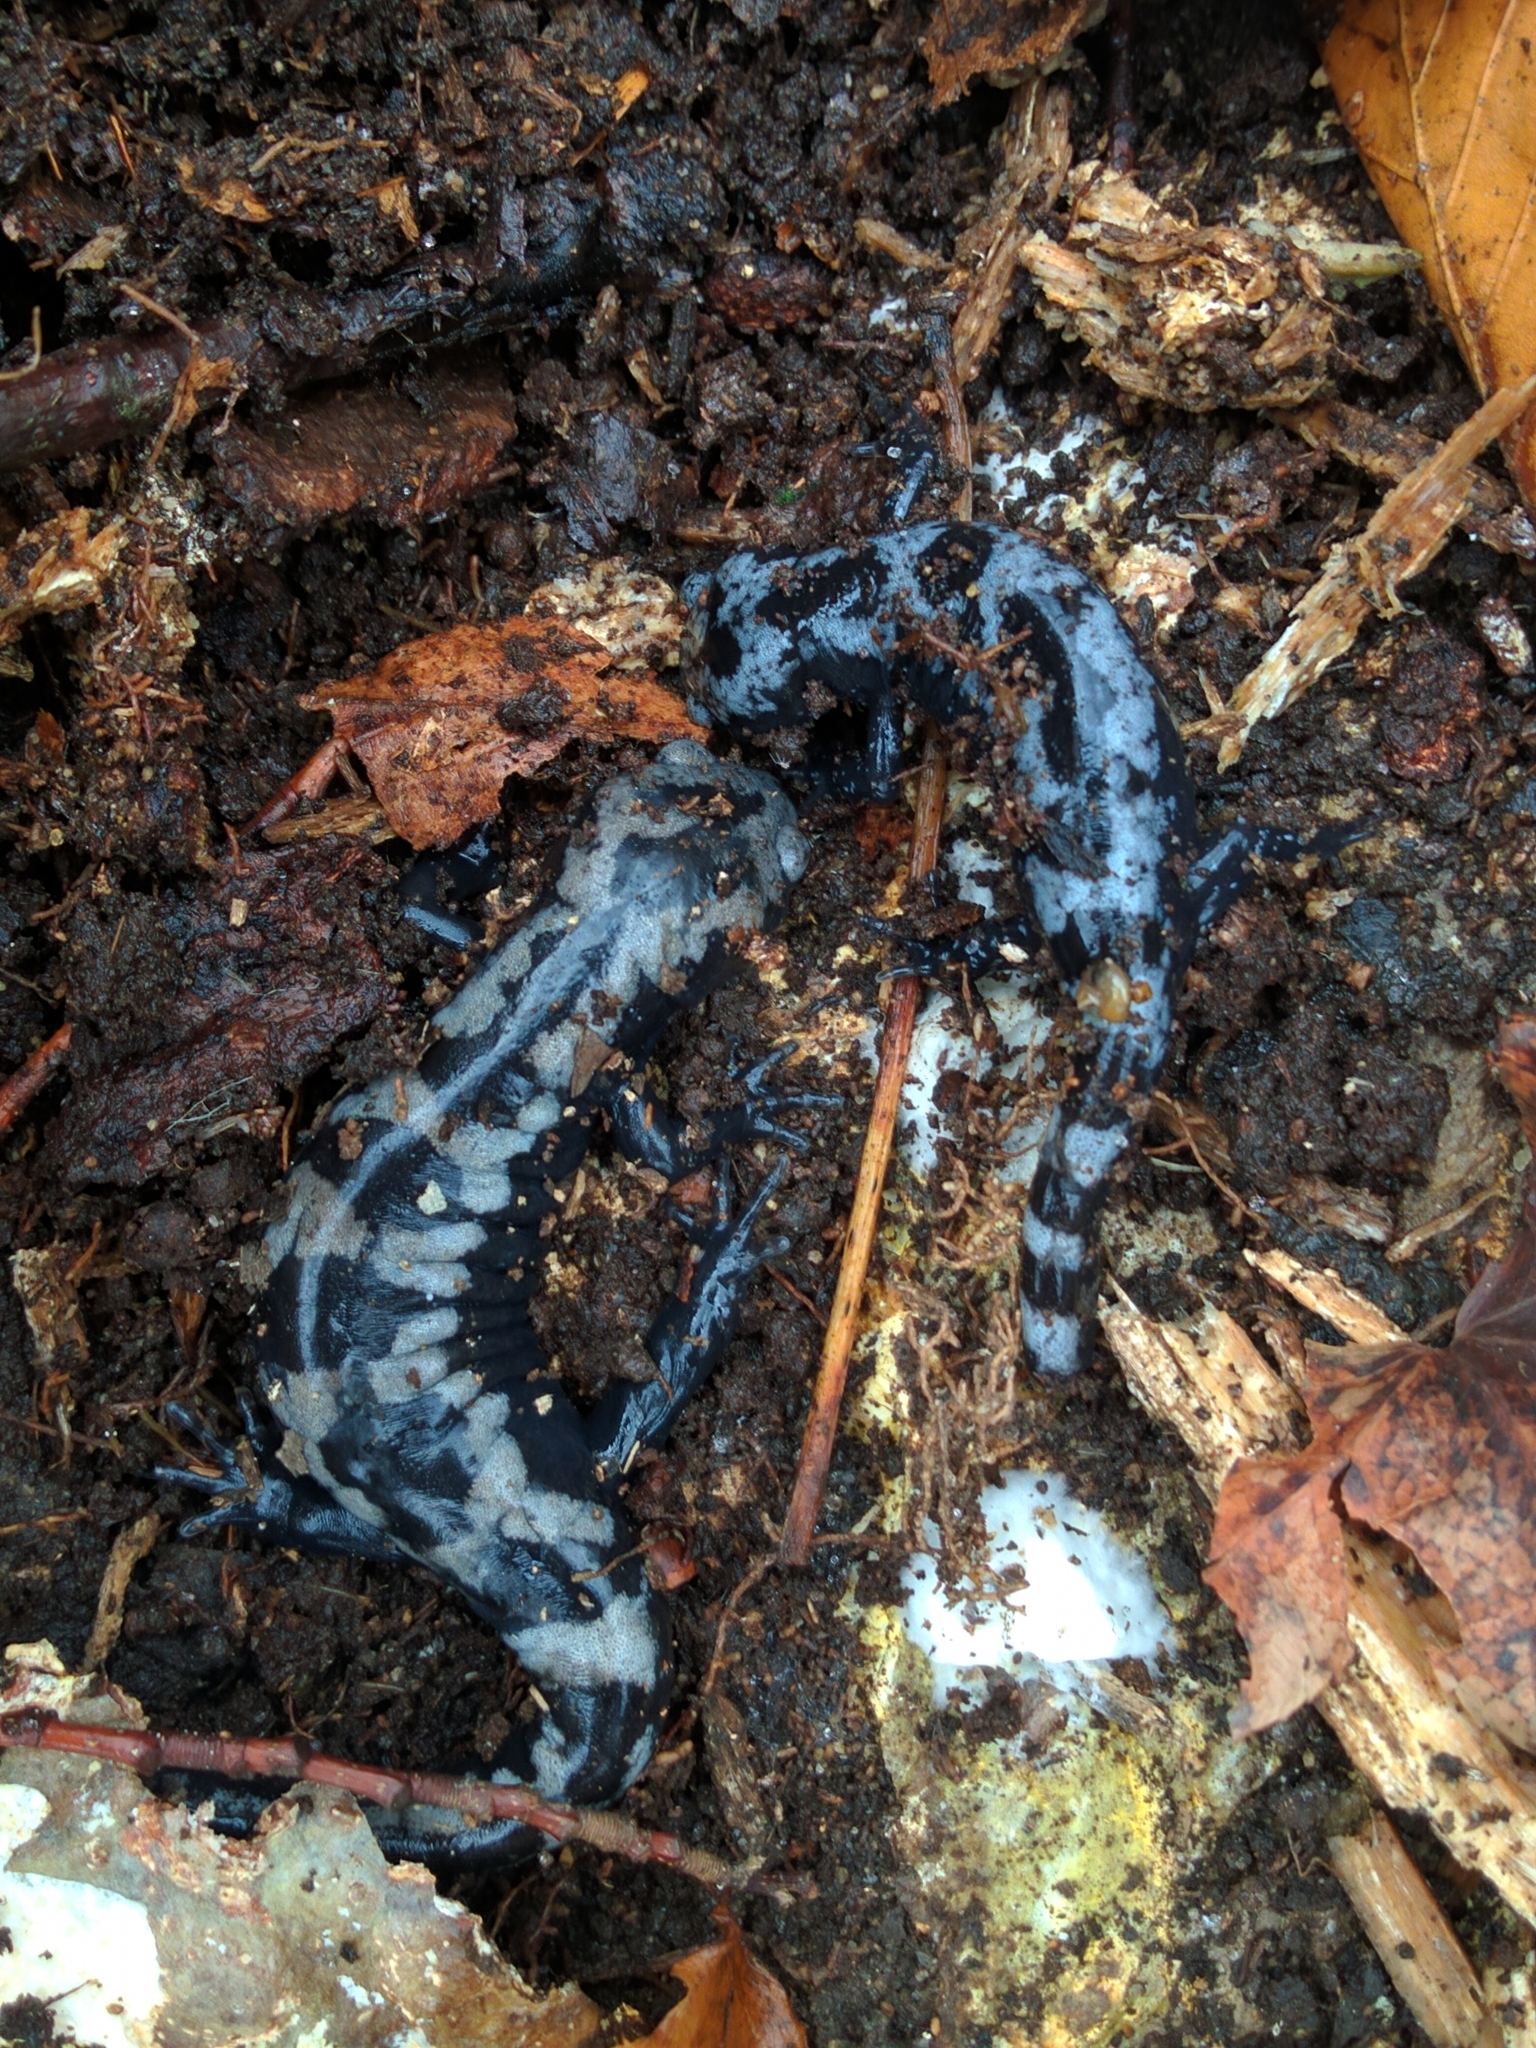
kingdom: Animalia
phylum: Chordata
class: Amphibia
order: Caudata
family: Ambystomatidae
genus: Ambystoma
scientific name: Ambystoma opacum
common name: Marbled salamander
